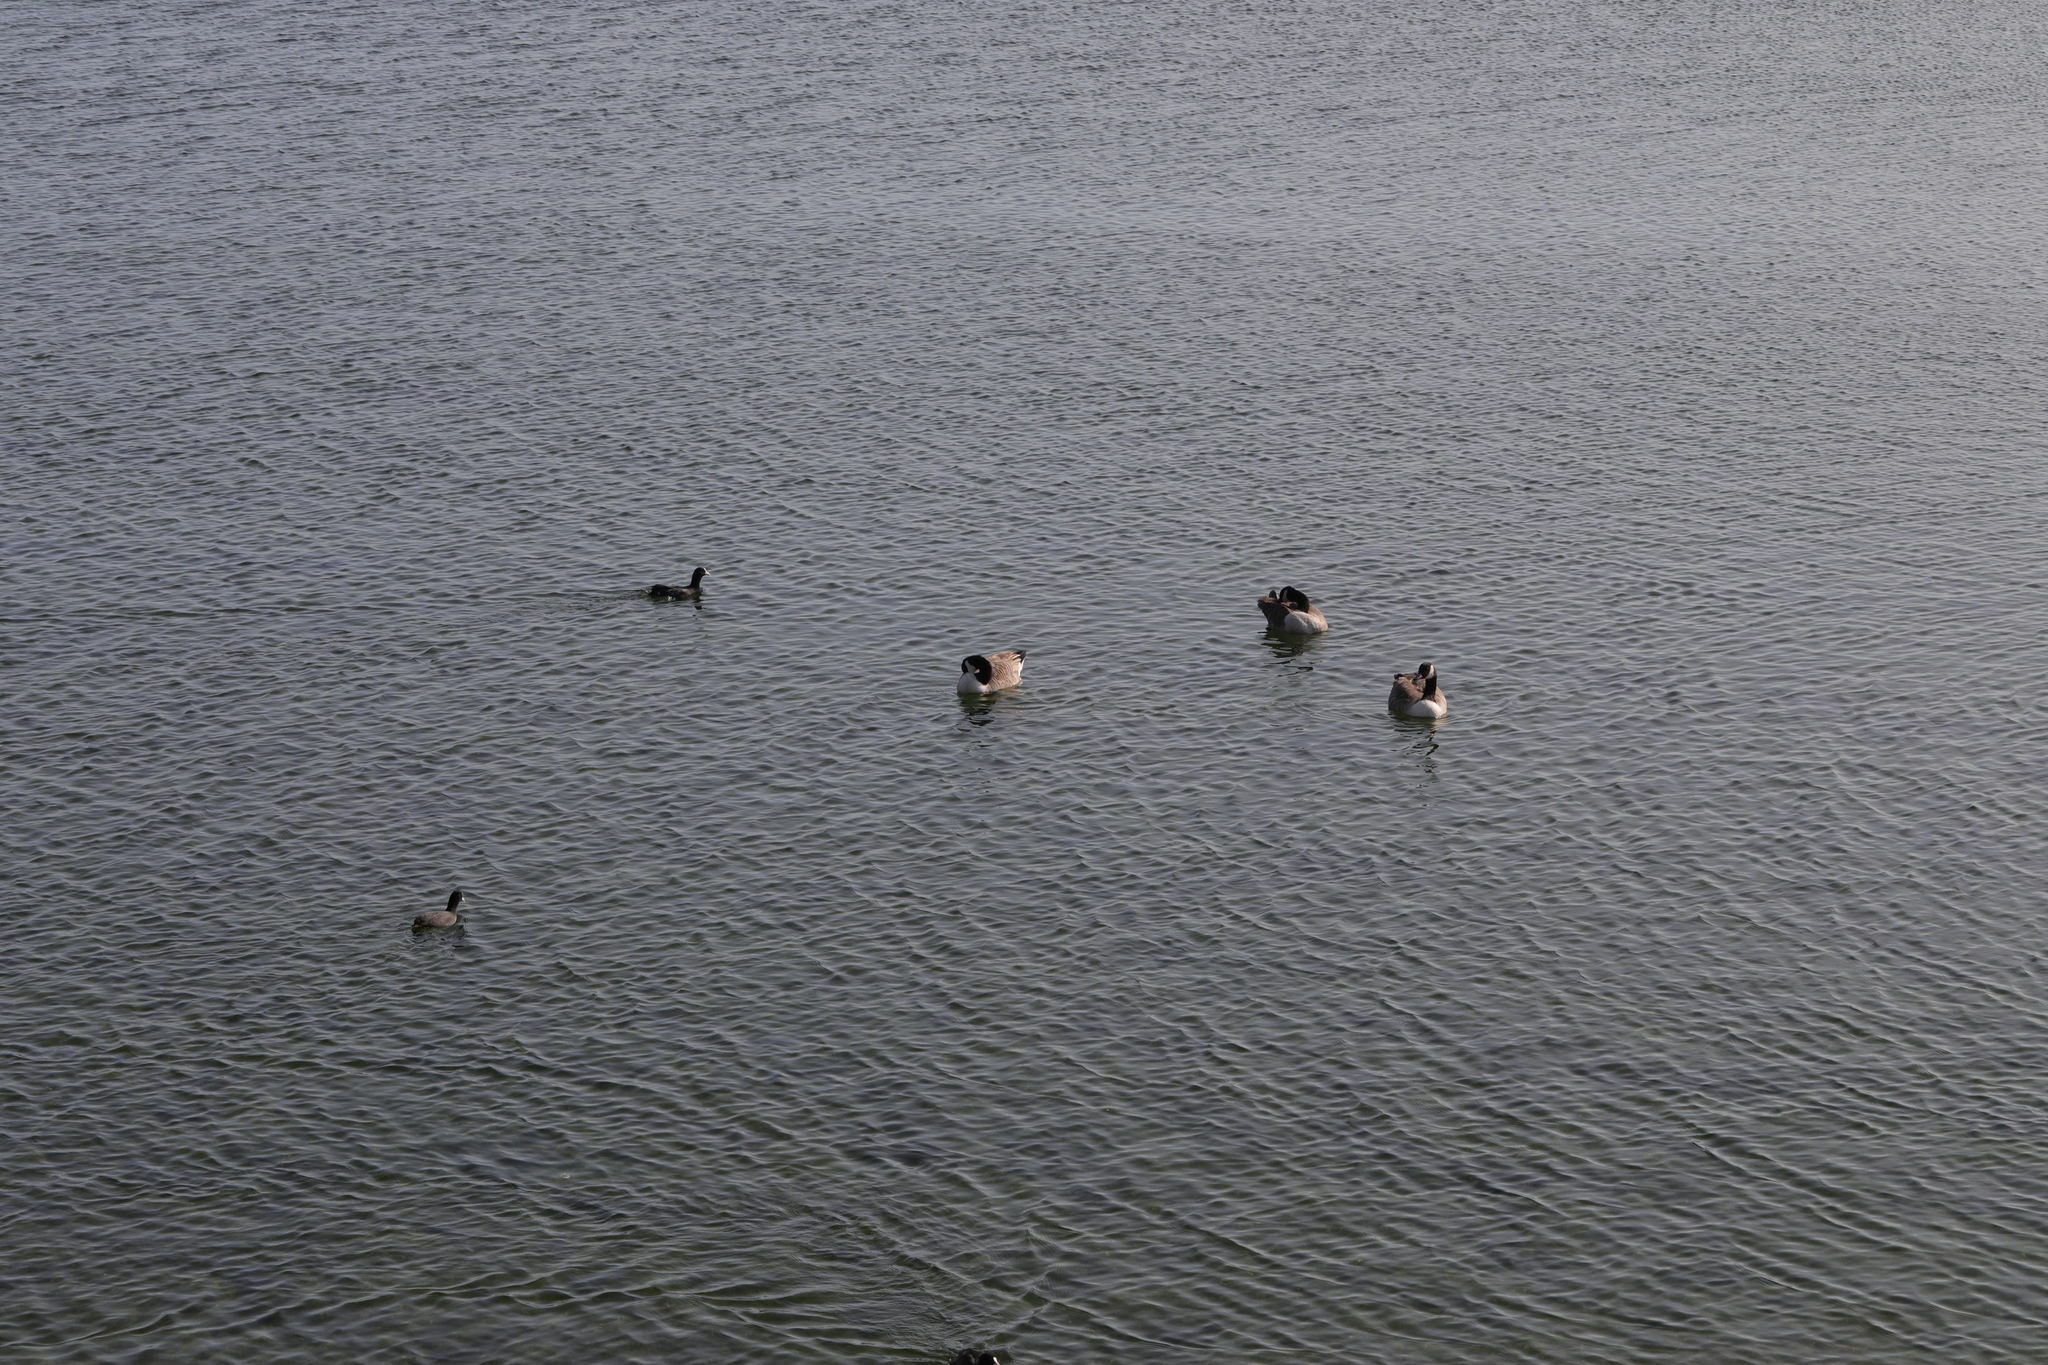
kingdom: Animalia
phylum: Chordata
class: Aves
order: Anseriformes
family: Anatidae
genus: Branta
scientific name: Branta canadensis
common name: Canada goose
